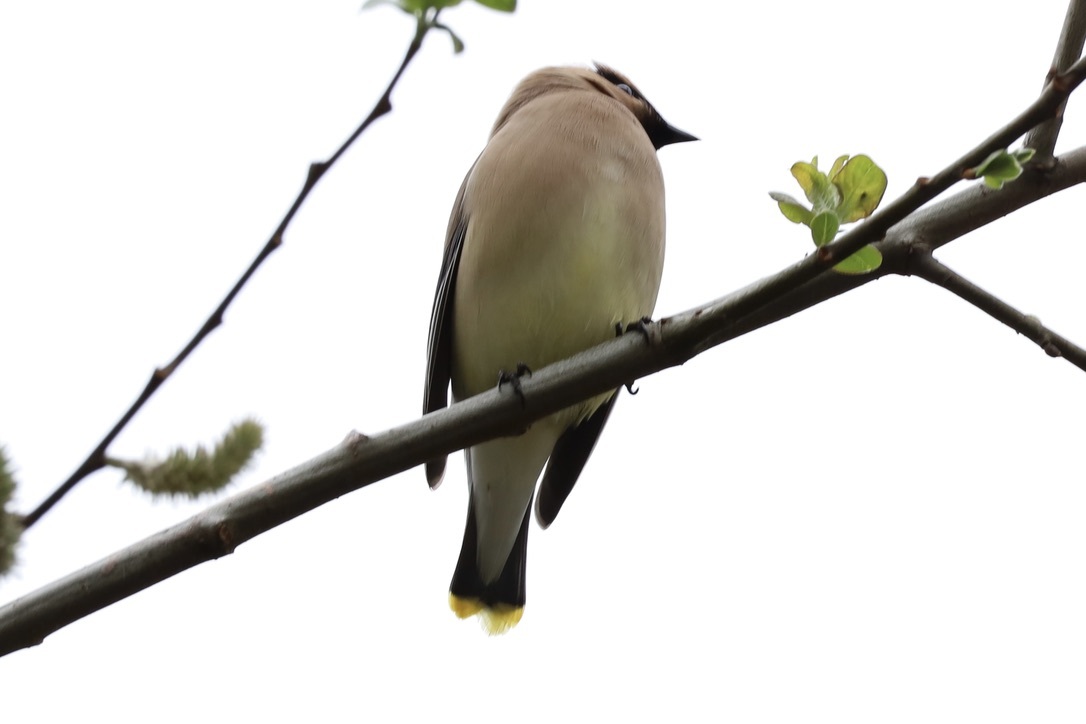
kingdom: Animalia
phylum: Chordata
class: Aves
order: Passeriformes
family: Bombycillidae
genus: Bombycilla
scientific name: Bombycilla cedrorum
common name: Cedar waxwing
